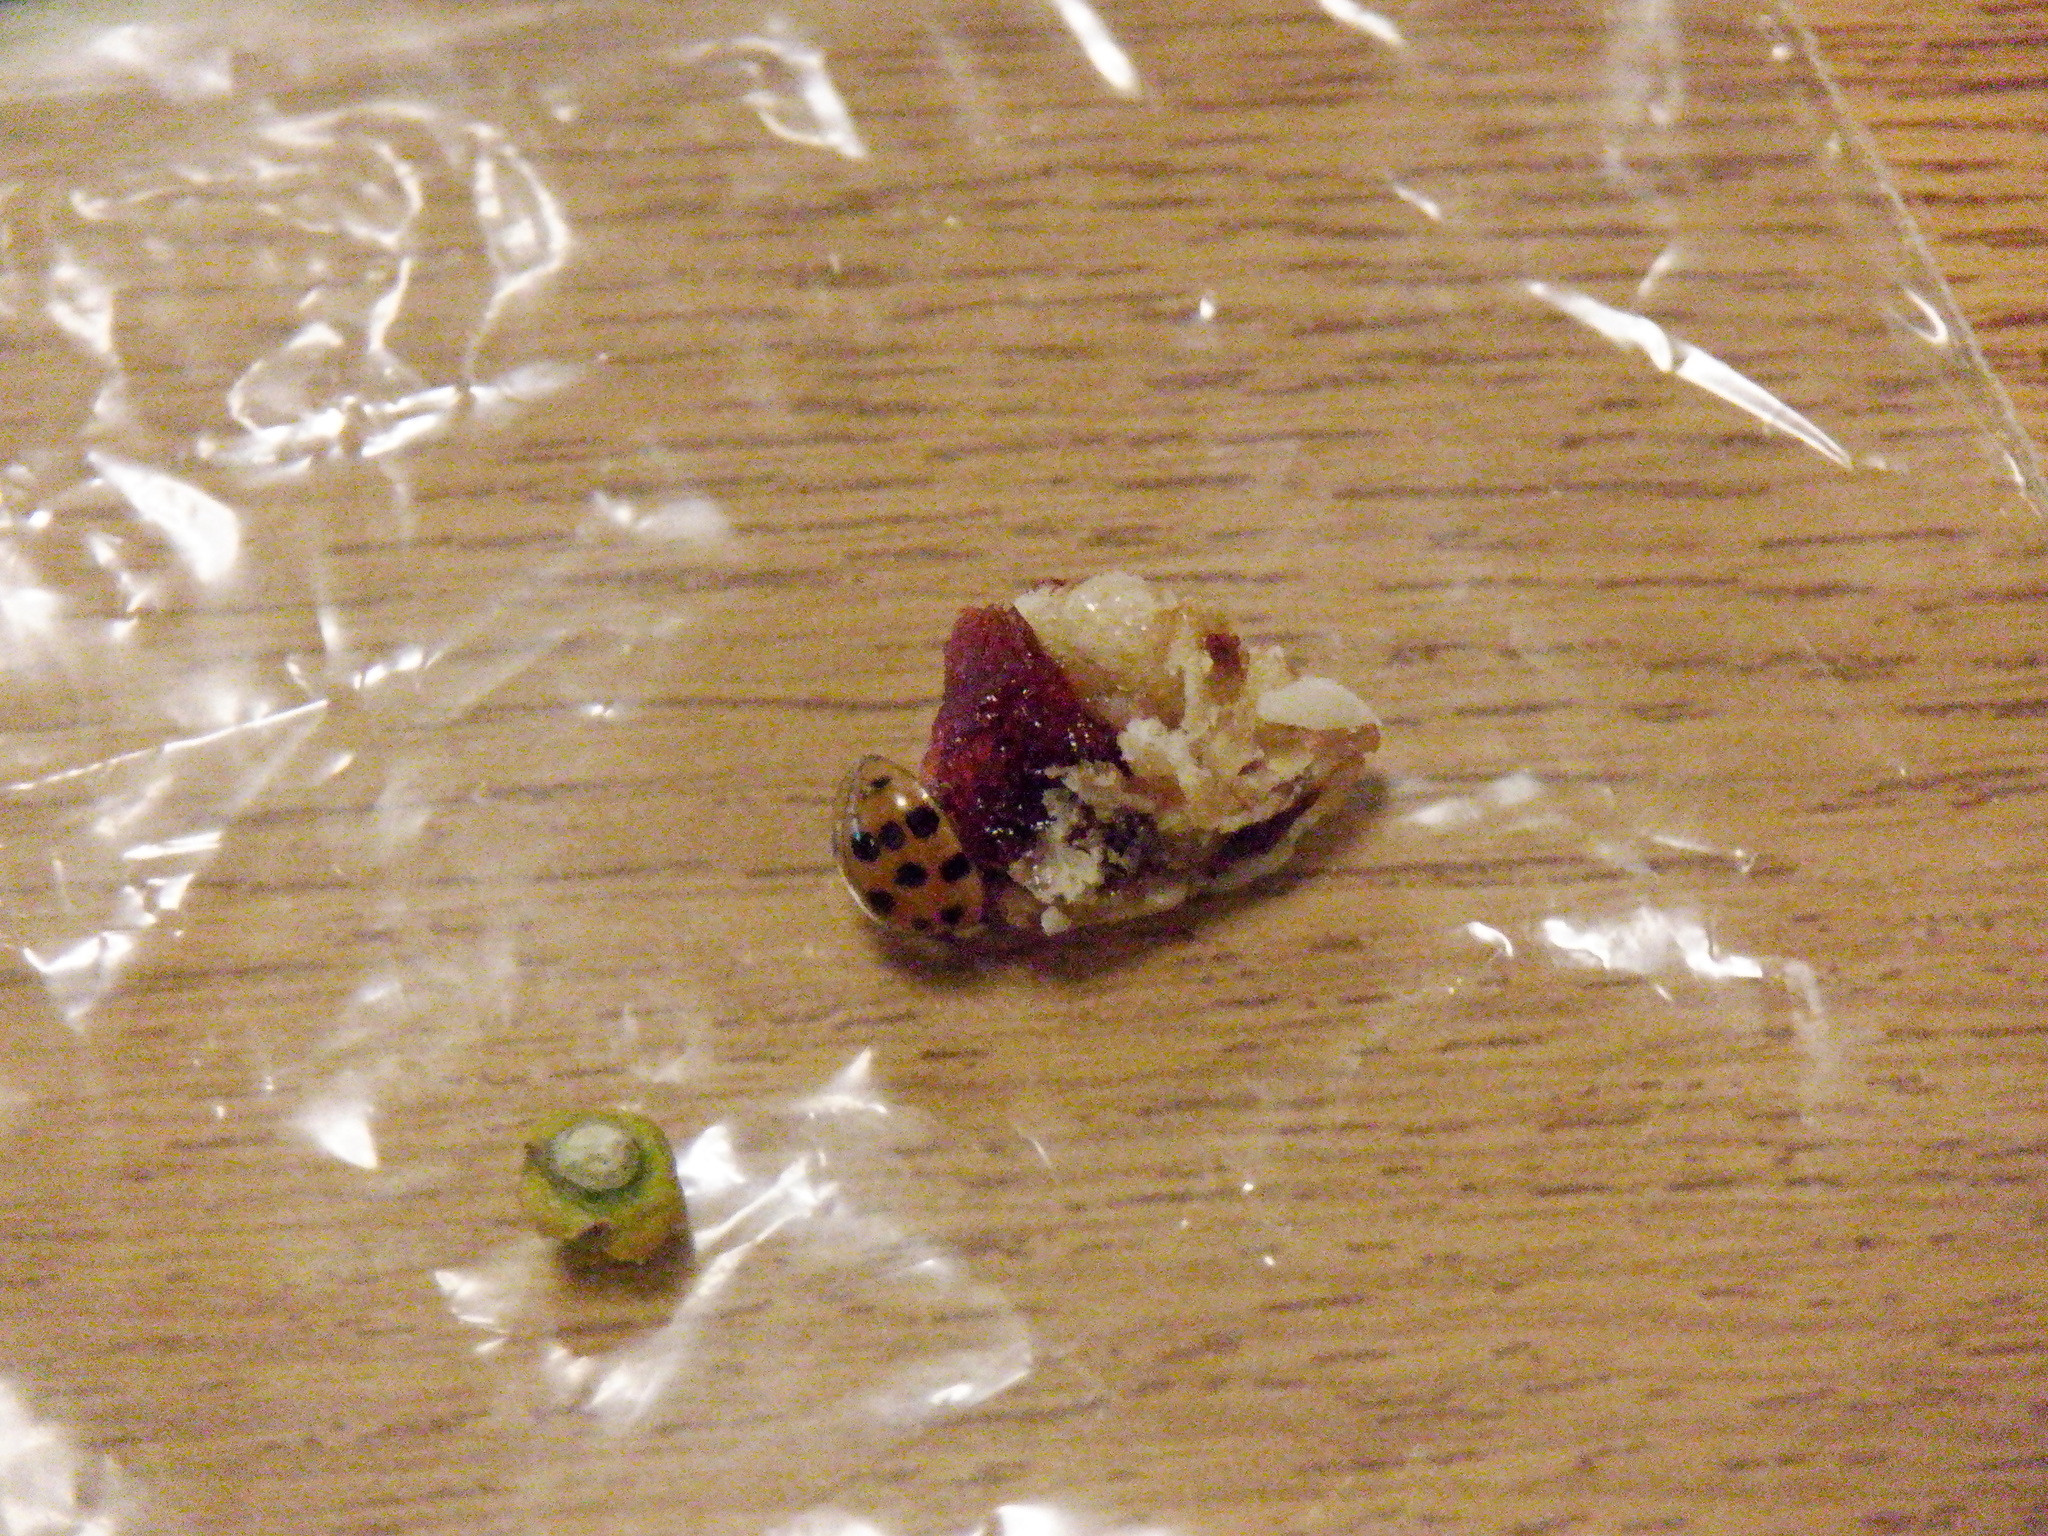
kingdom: Animalia
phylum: Arthropoda
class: Insecta
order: Coleoptera
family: Coccinellidae
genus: Harmonia
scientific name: Harmonia axyridis
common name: Harlequin ladybird
